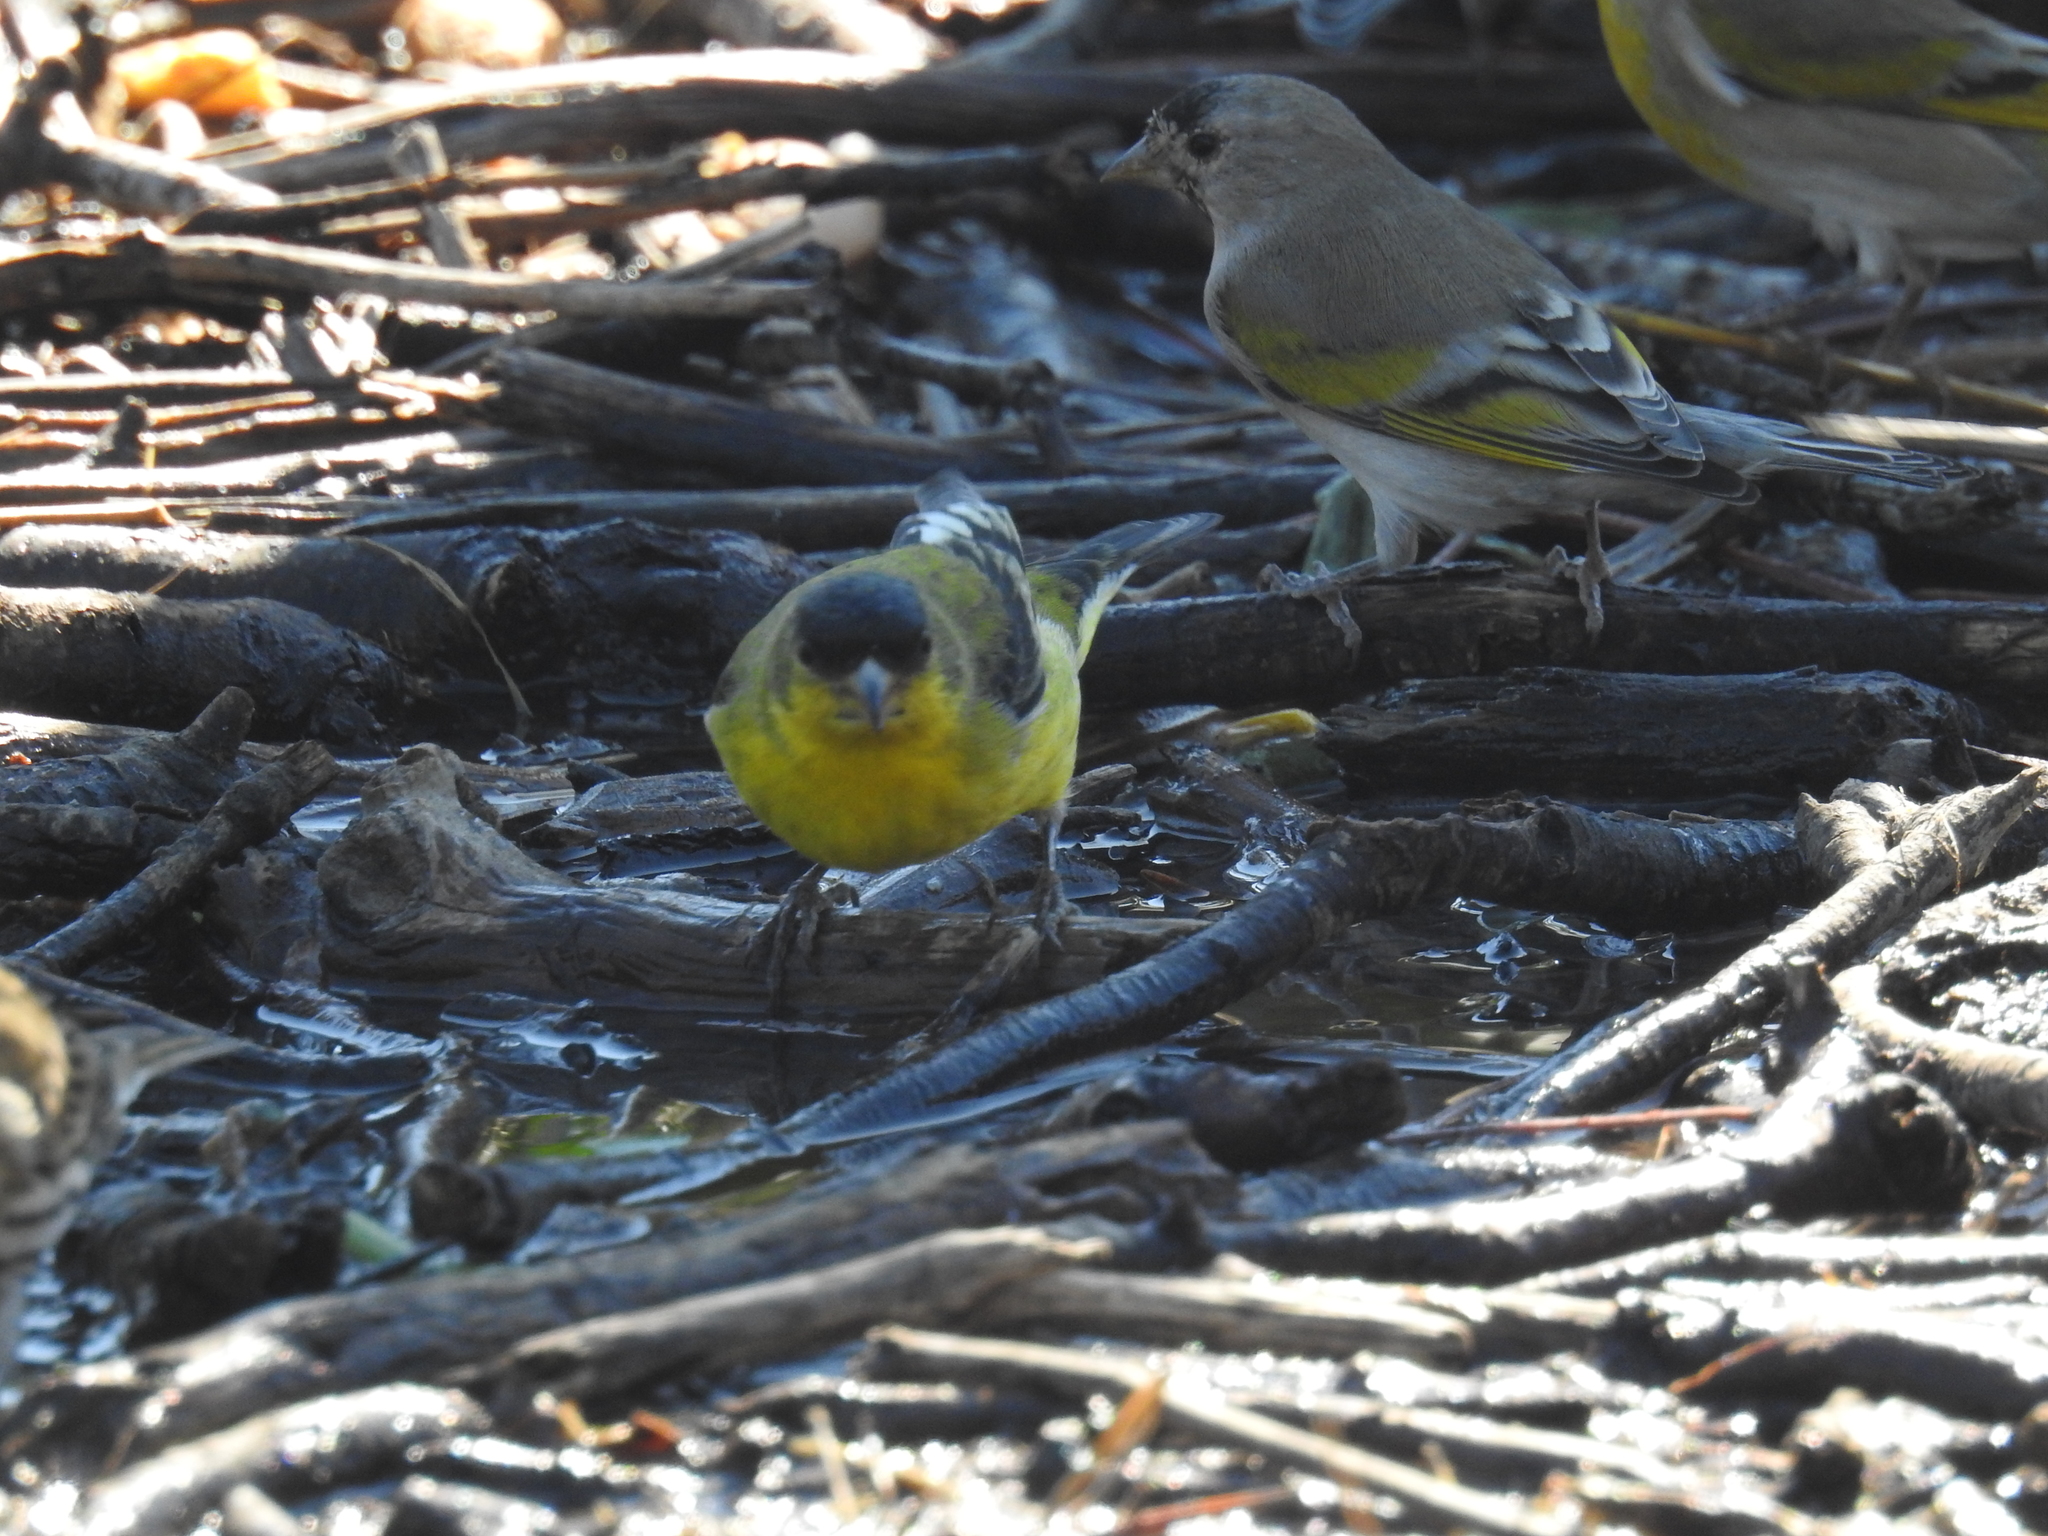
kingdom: Animalia
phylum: Chordata
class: Aves
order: Passeriformes
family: Fringillidae
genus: Spinus
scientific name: Spinus psaltria
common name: Lesser goldfinch
